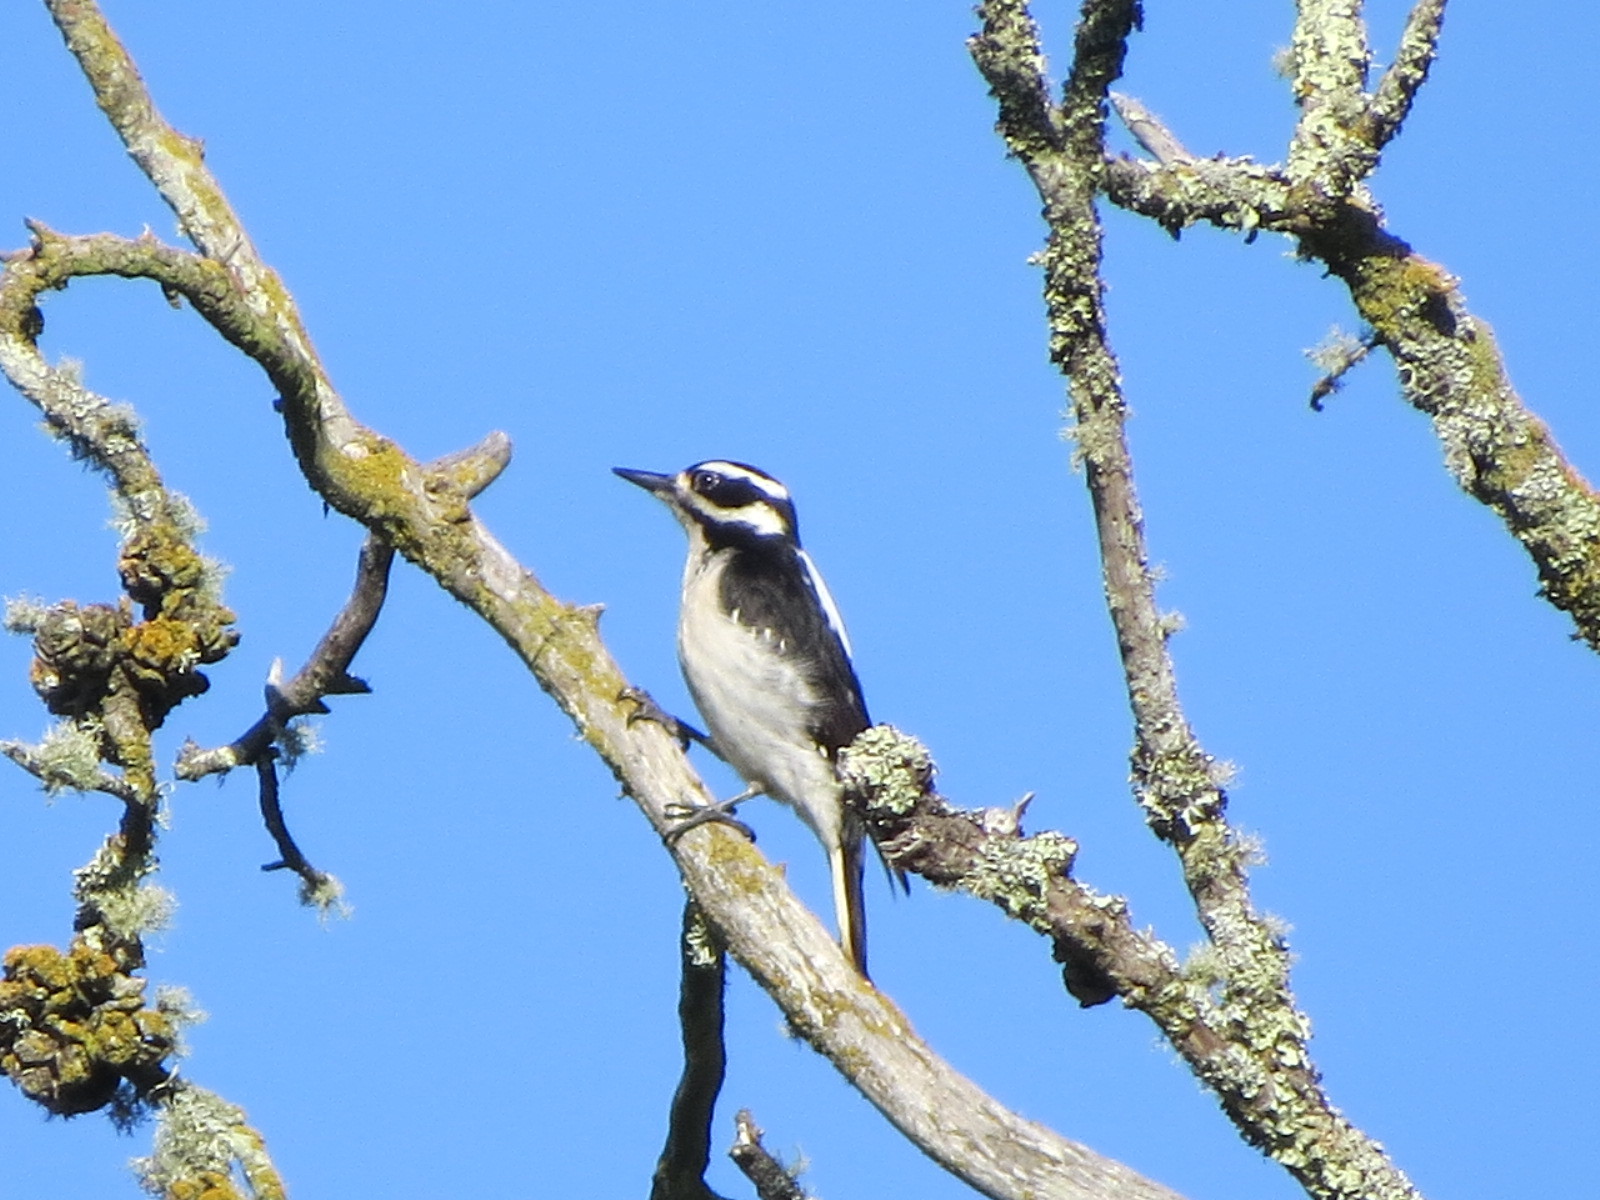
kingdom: Animalia
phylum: Chordata
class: Aves
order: Piciformes
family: Picidae
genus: Leuconotopicus
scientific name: Leuconotopicus villosus
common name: Hairy woodpecker
